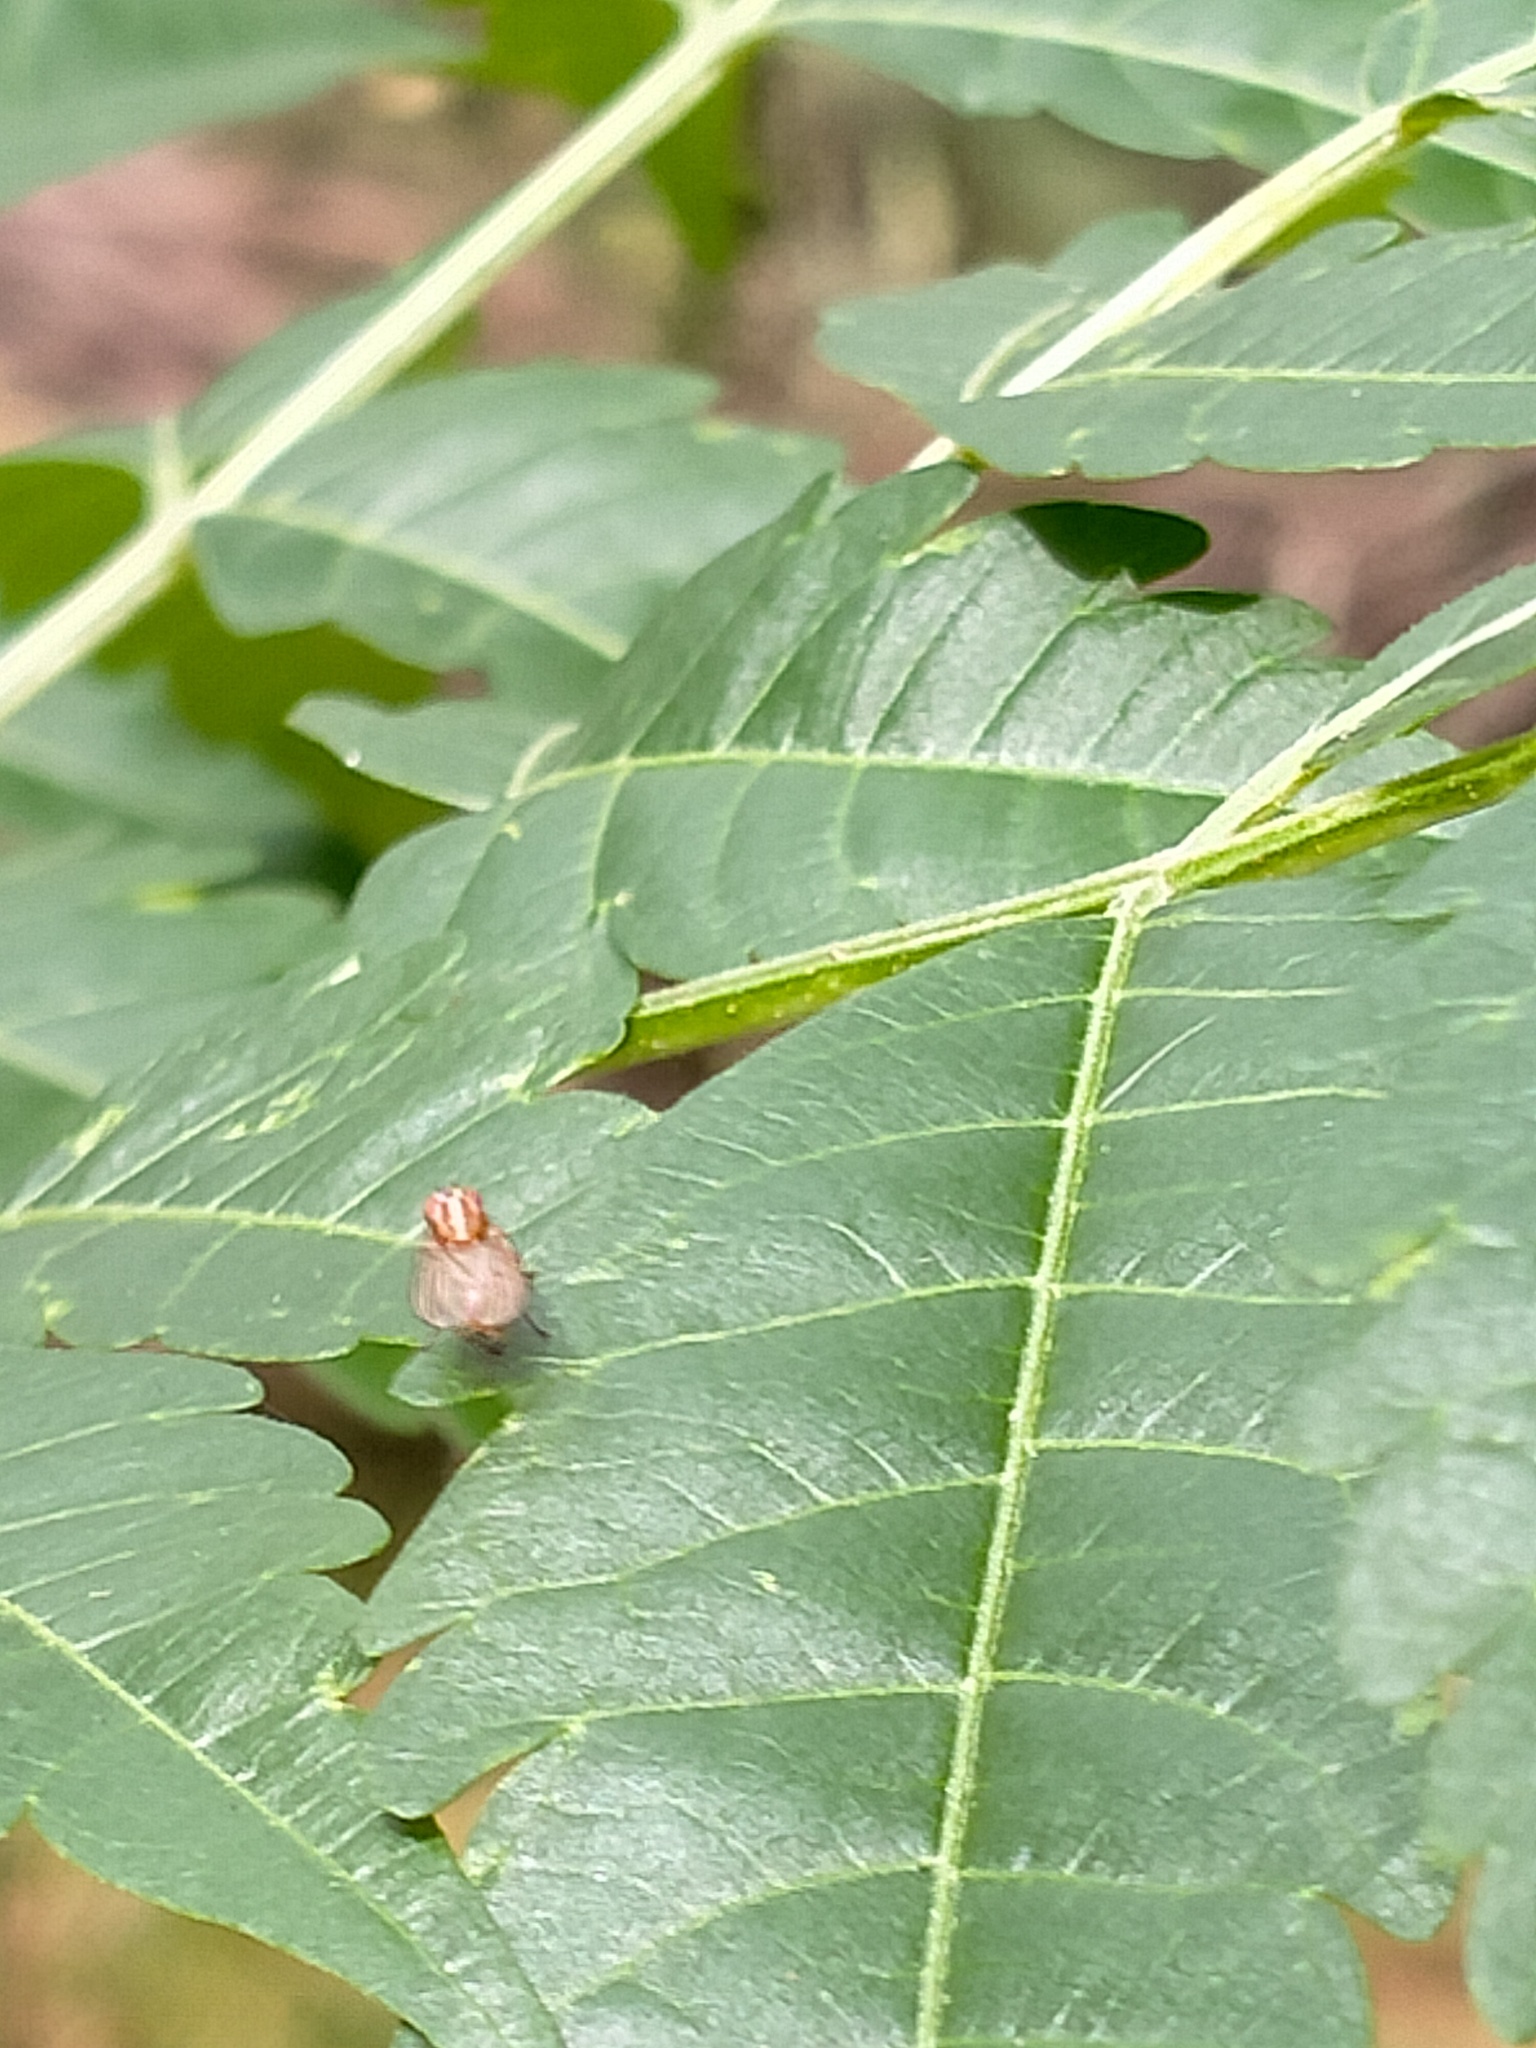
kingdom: Plantae
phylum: Tracheophyta
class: Magnoliopsida
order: Sapindales
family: Meliaceae
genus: Melia
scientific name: Melia azedarach
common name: Chinaberrytree
